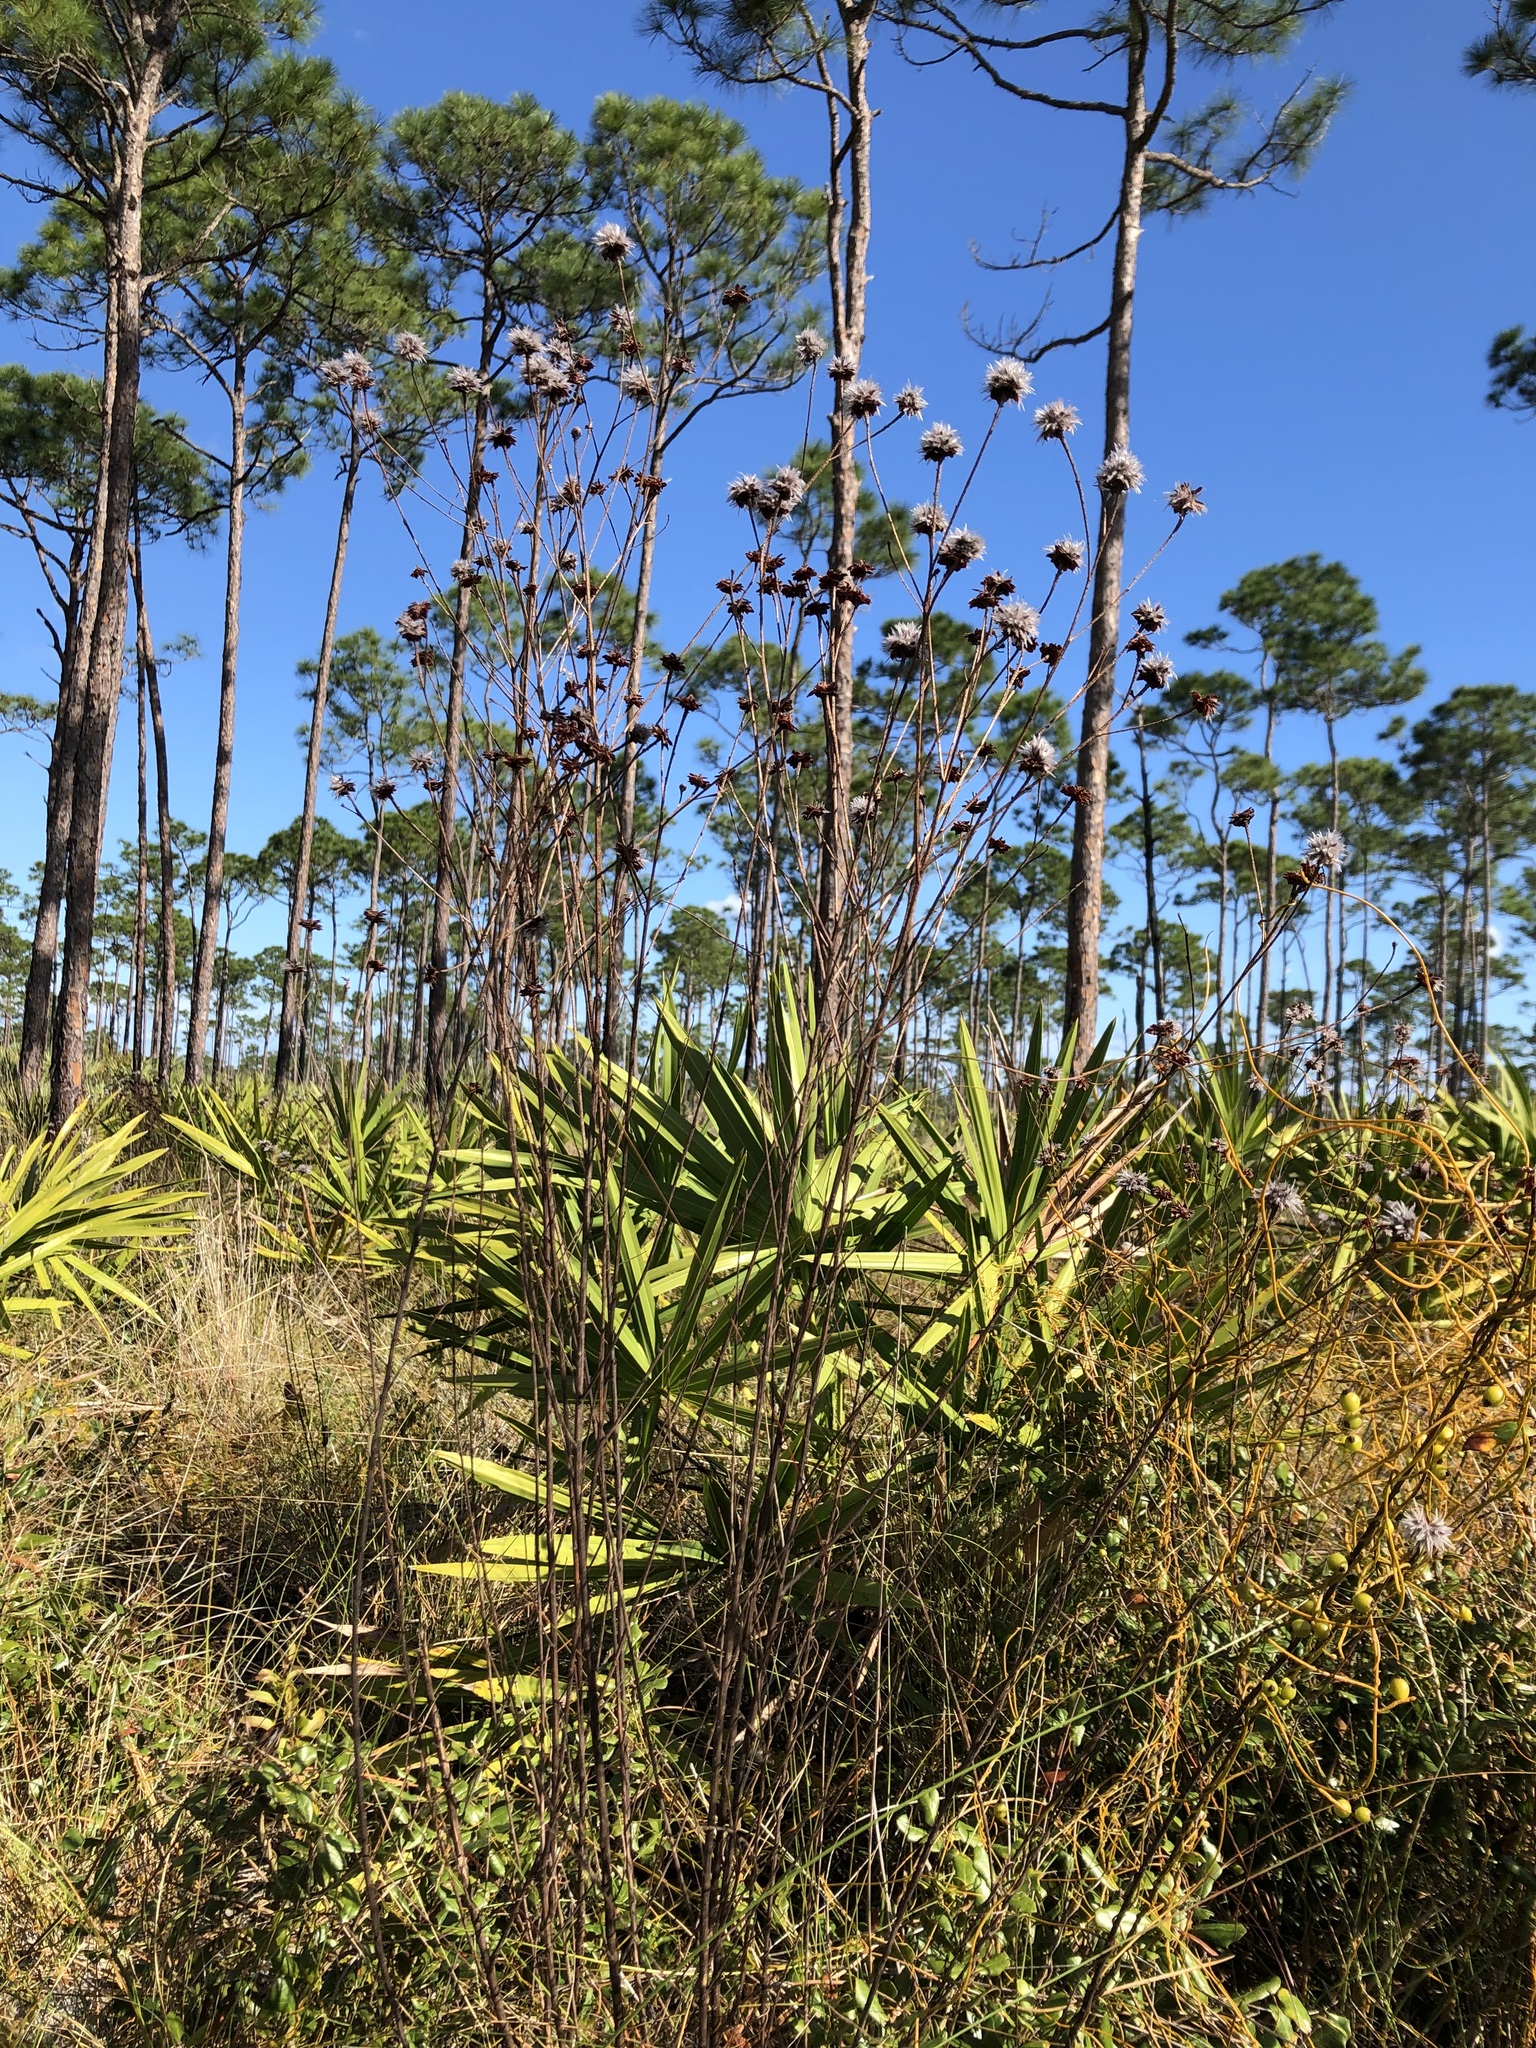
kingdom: Plantae
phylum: Tracheophyta
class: Magnoliopsida
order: Fabales
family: Fabaceae
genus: Dalea
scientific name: Dalea pinnata
